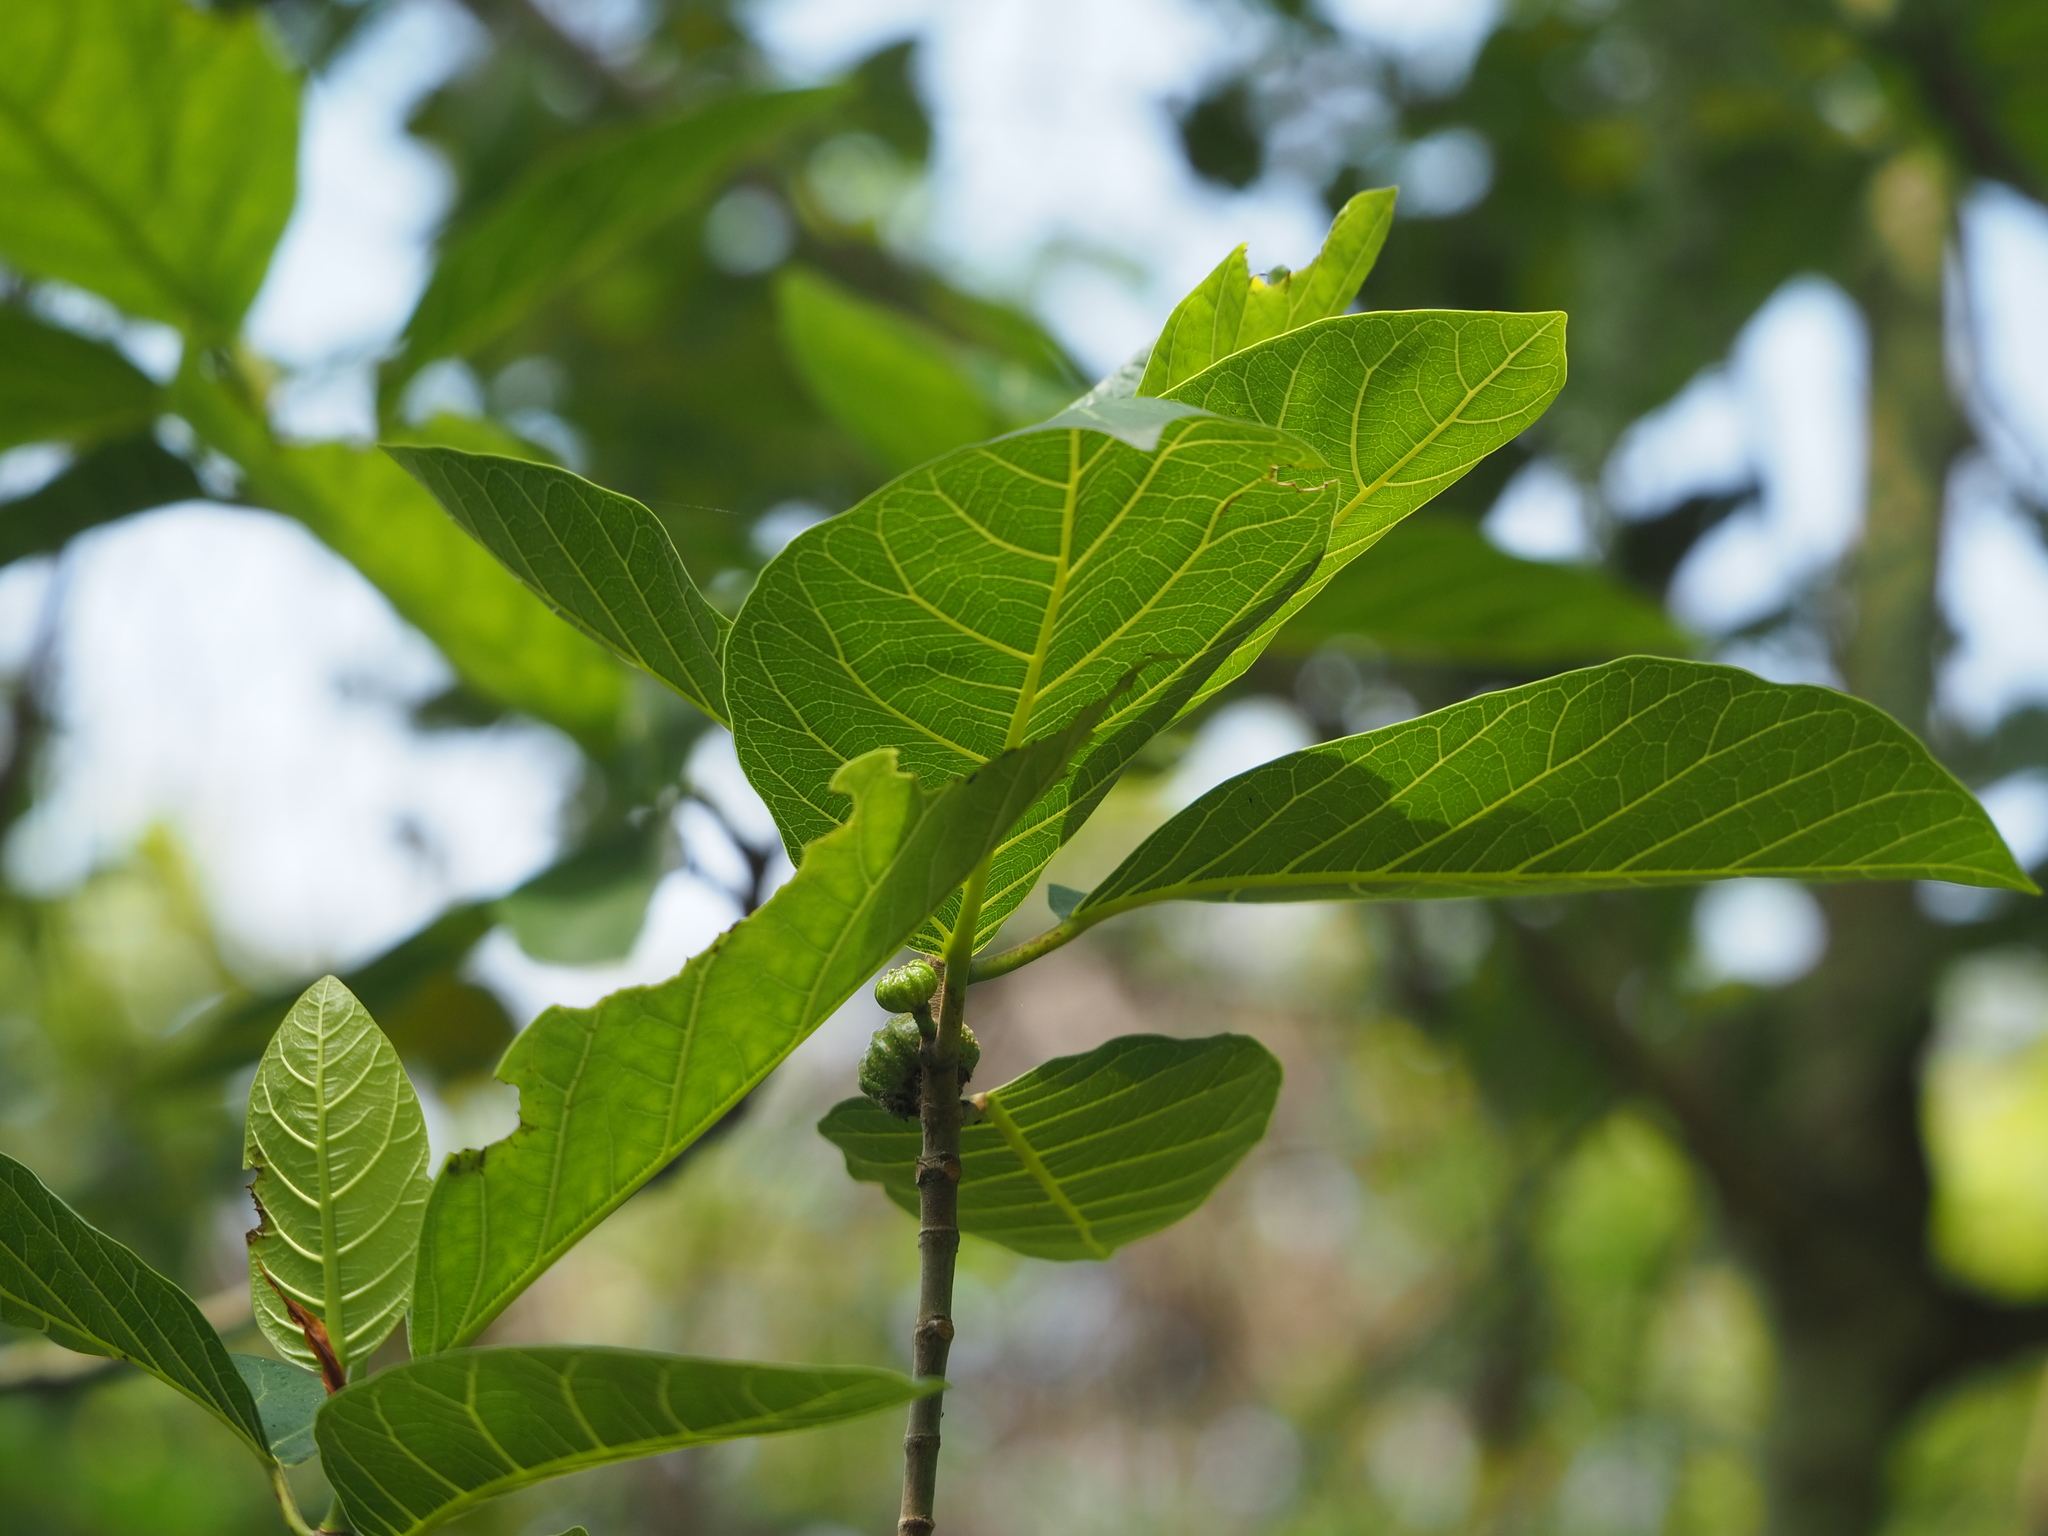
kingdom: Plantae
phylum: Tracheophyta
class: Magnoliopsida
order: Rosales
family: Moraceae
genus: Ficus
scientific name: Ficus septica
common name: Septic fig
